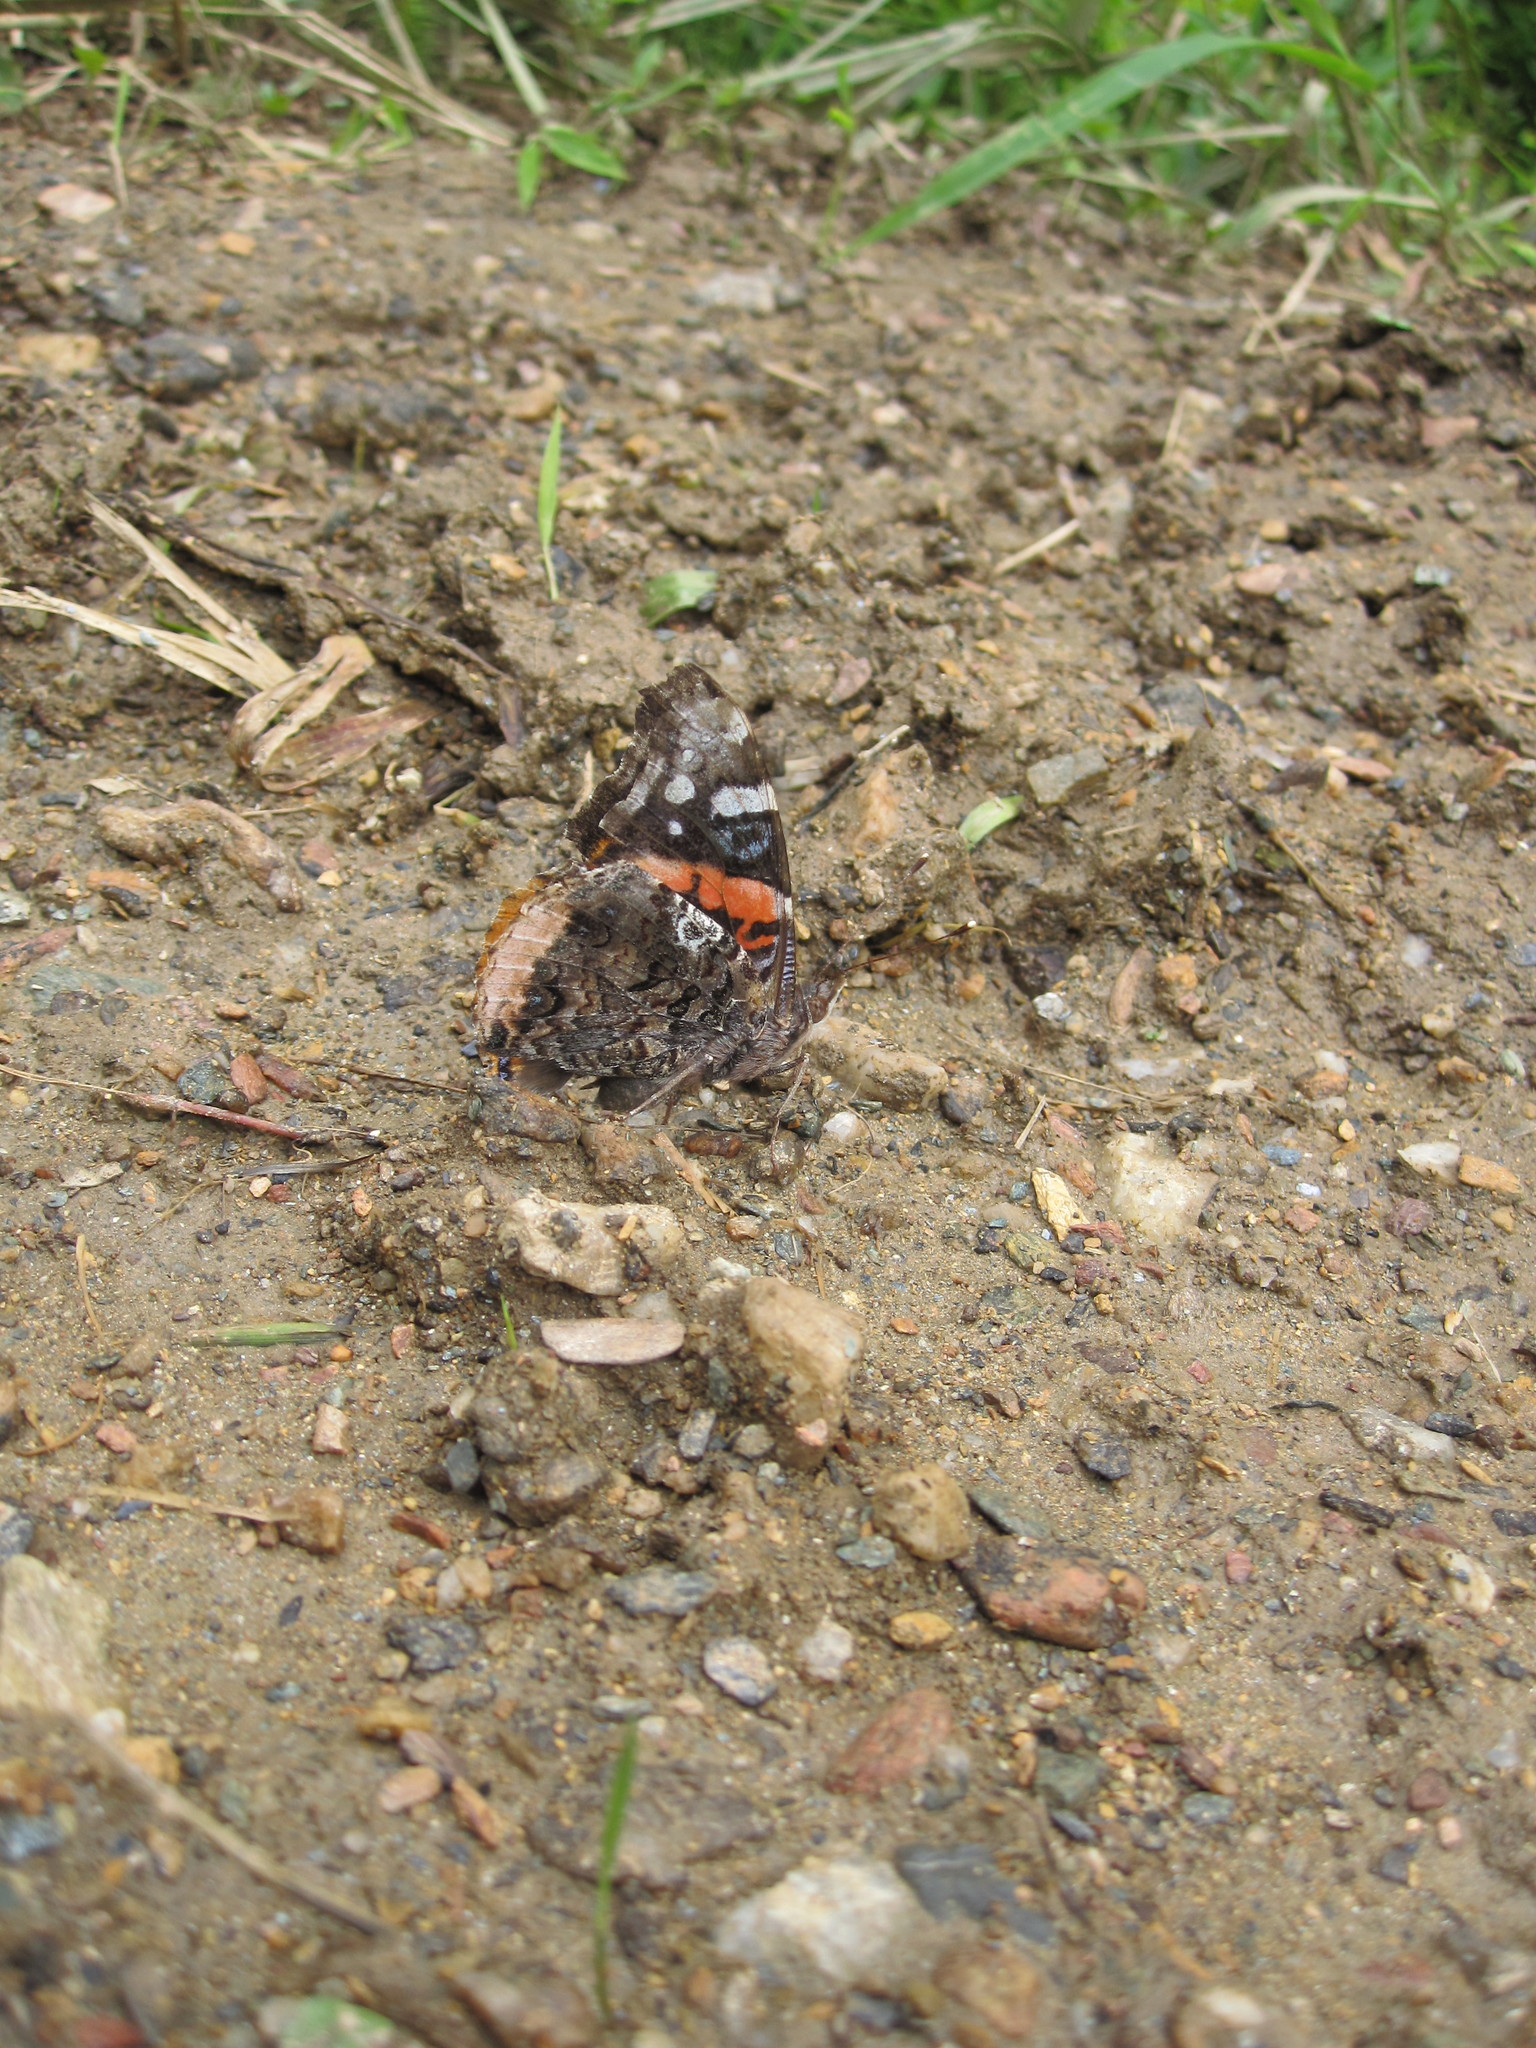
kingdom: Animalia
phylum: Arthropoda
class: Insecta
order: Lepidoptera
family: Nymphalidae
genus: Vanessa
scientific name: Vanessa atalanta
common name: Red admiral
